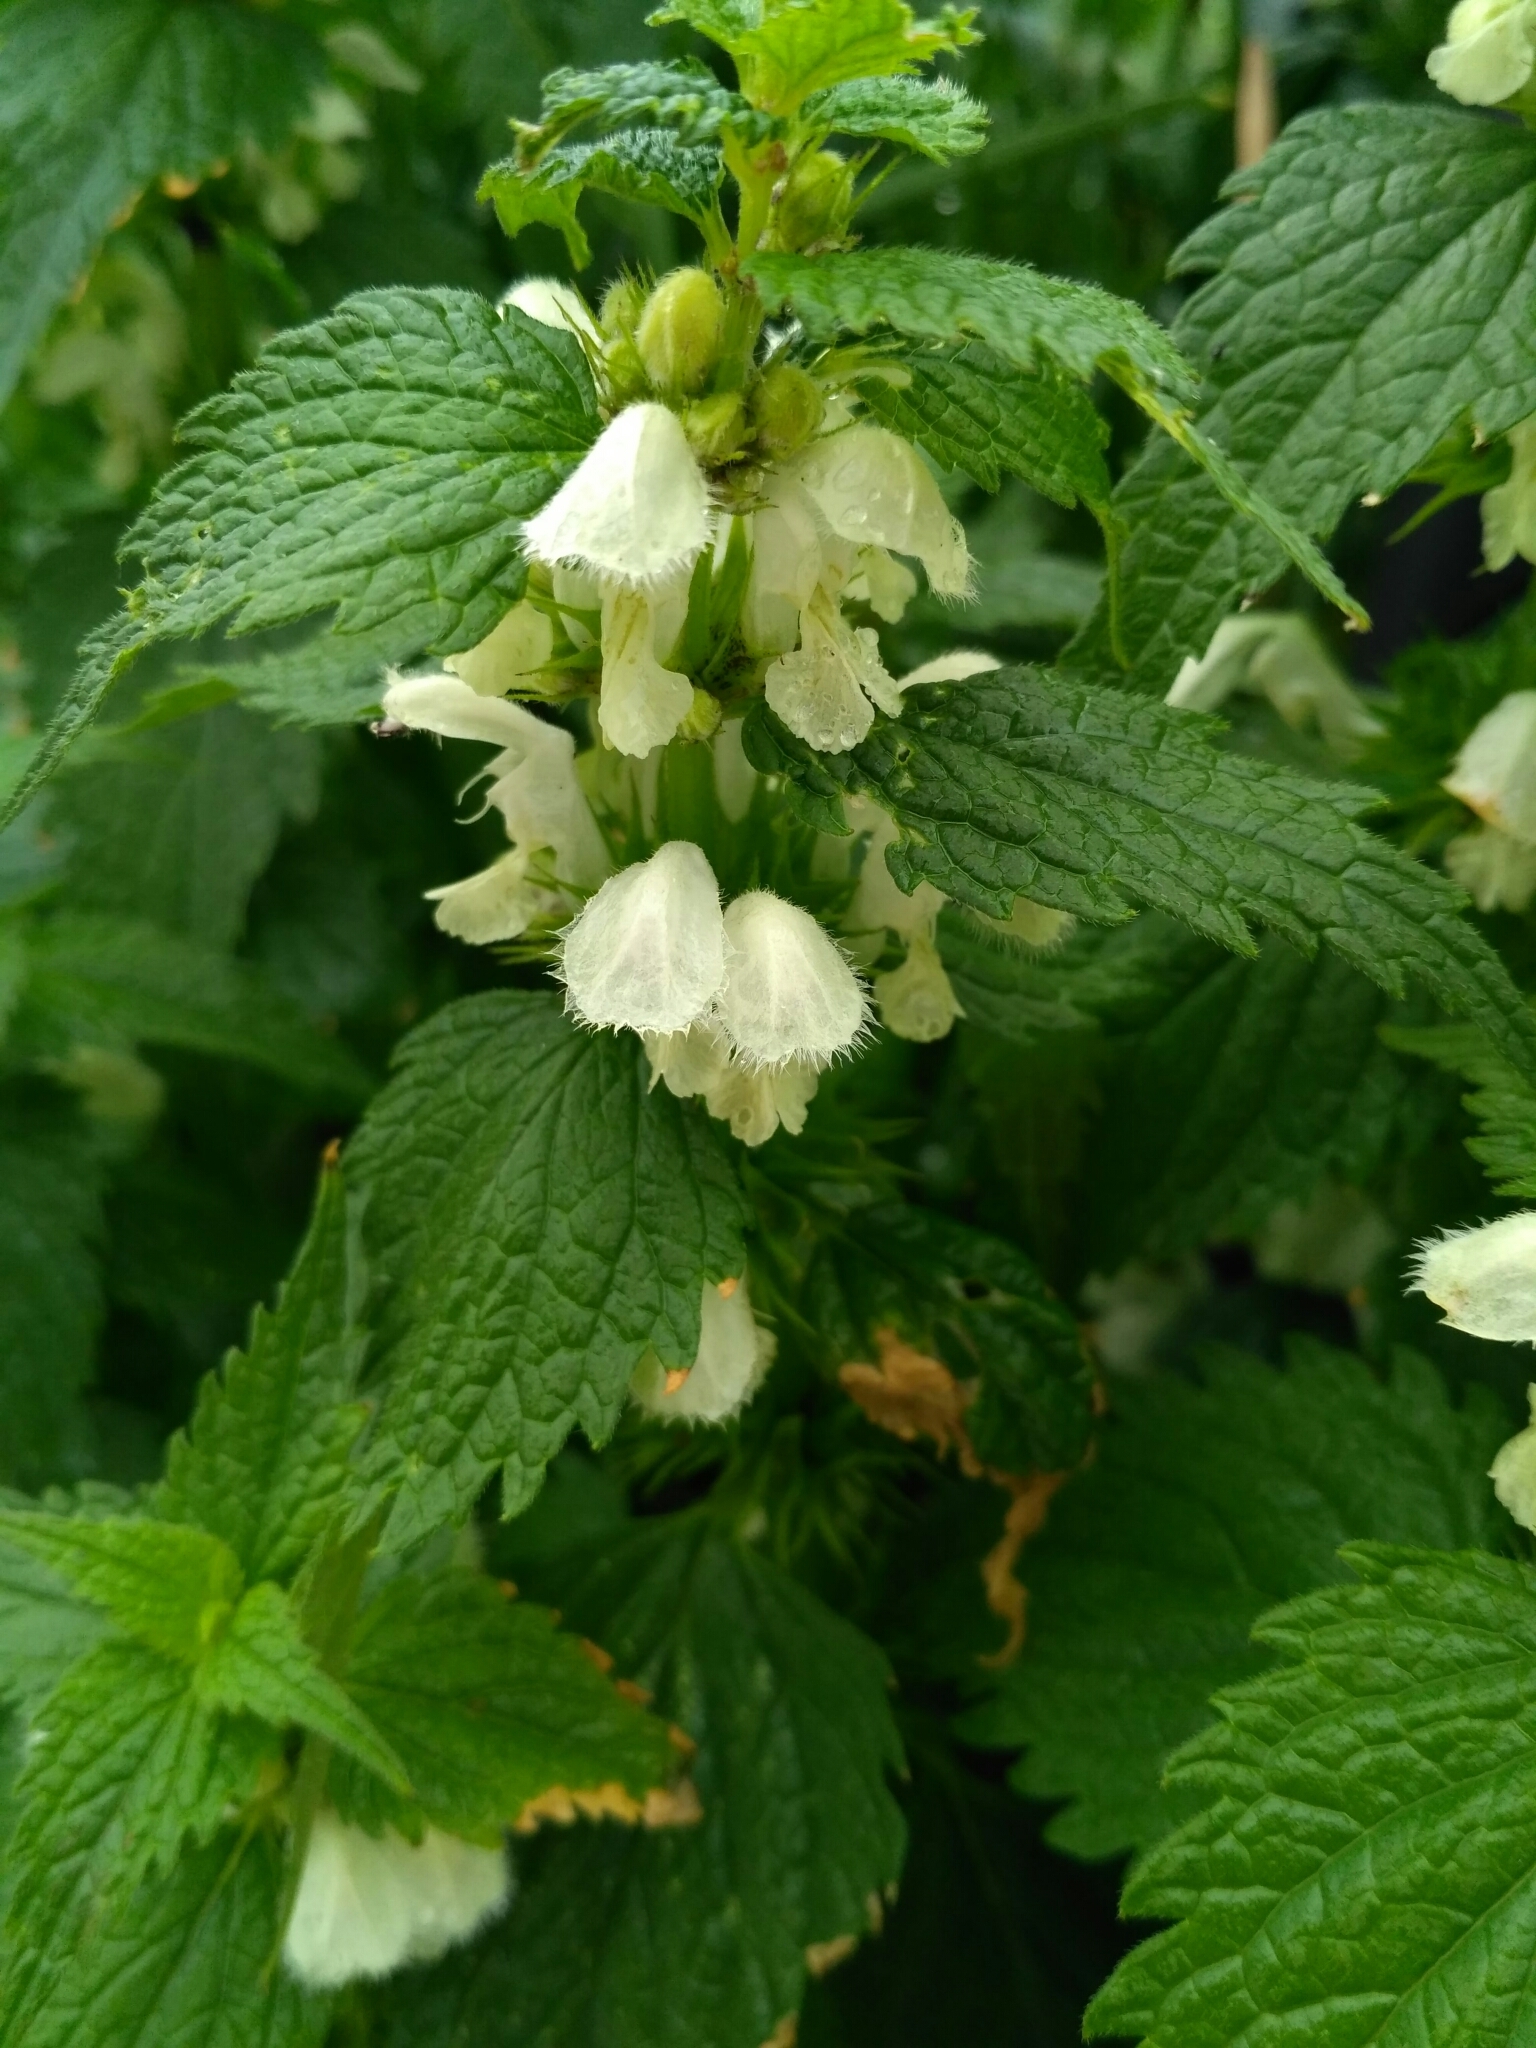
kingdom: Plantae
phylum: Tracheophyta
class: Magnoliopsida
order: Lamiales
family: Lamiaceae
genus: Lamium
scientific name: Lamium album
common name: White dead-nettle
